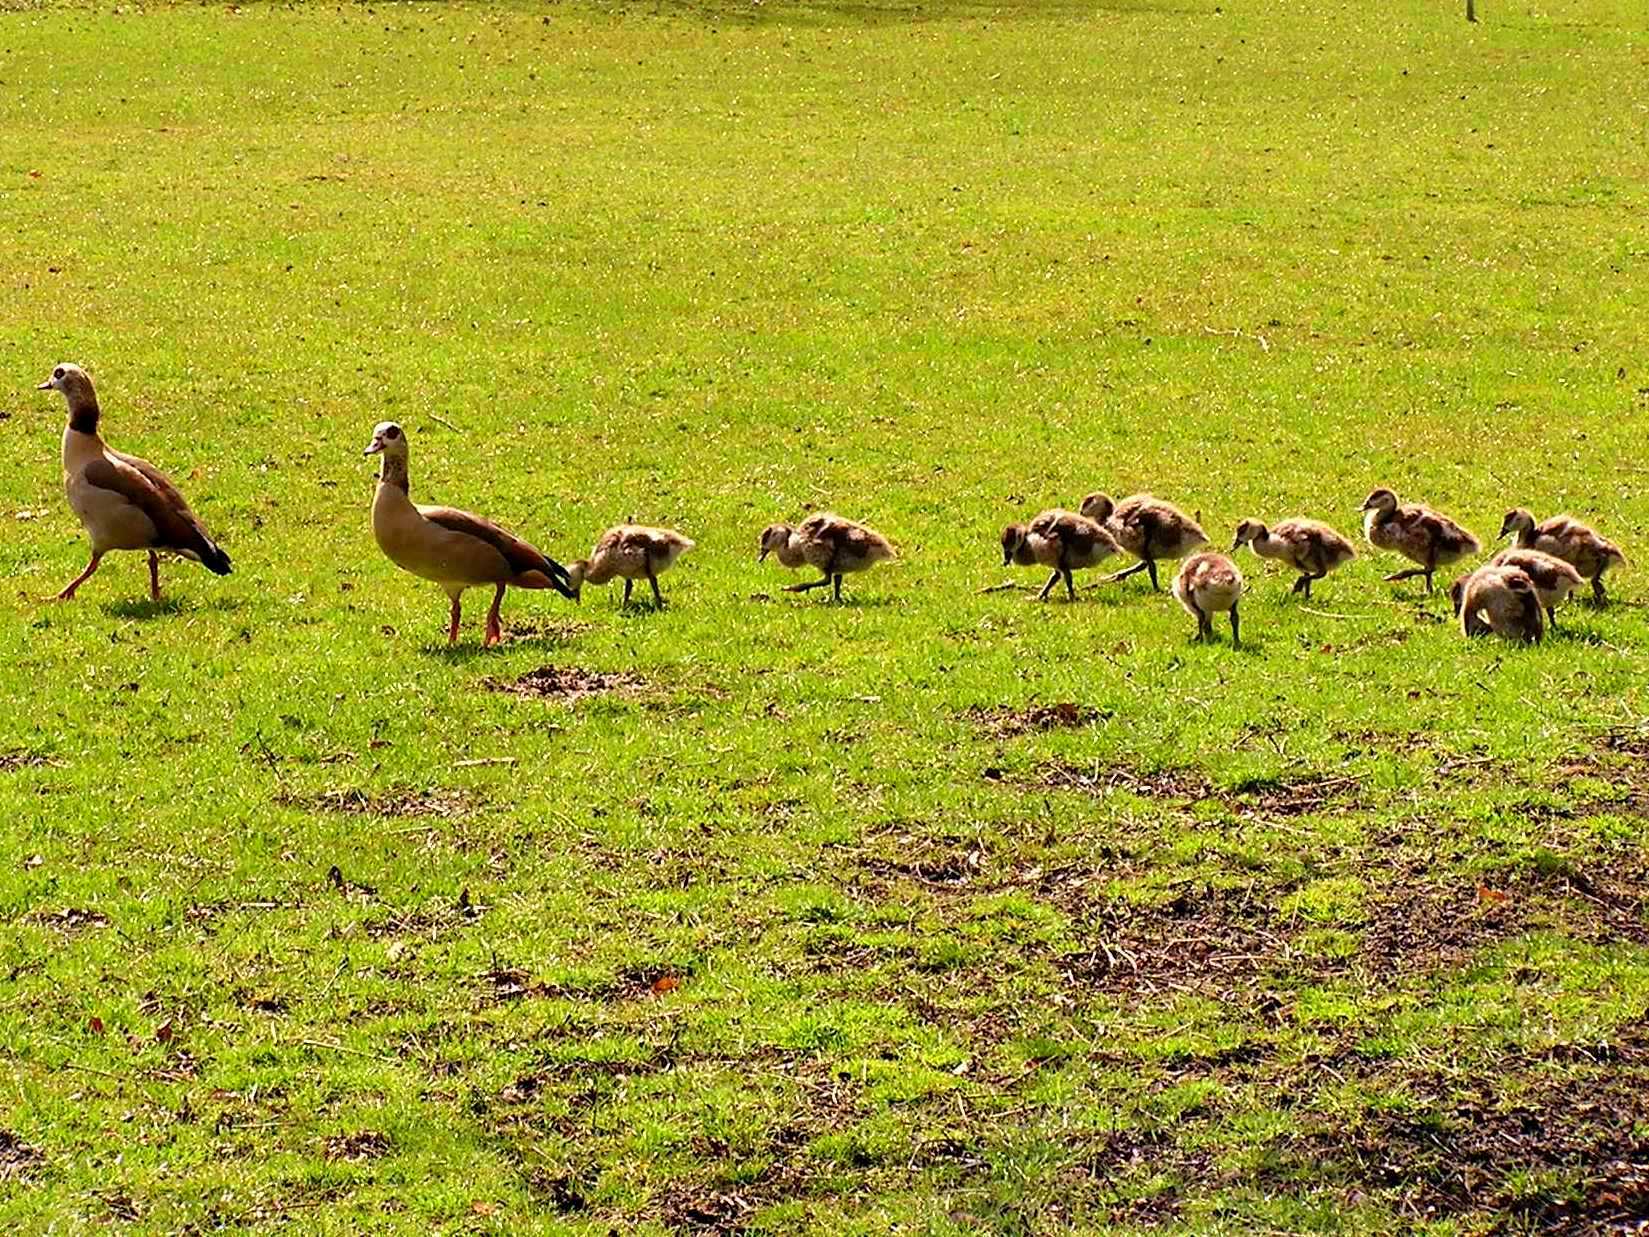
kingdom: Animalia
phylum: Chordata
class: Aves
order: Anseriformes
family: Anatidae
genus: Alopochen
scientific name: Alopochen aegyptiaca
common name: Egyptian goose
